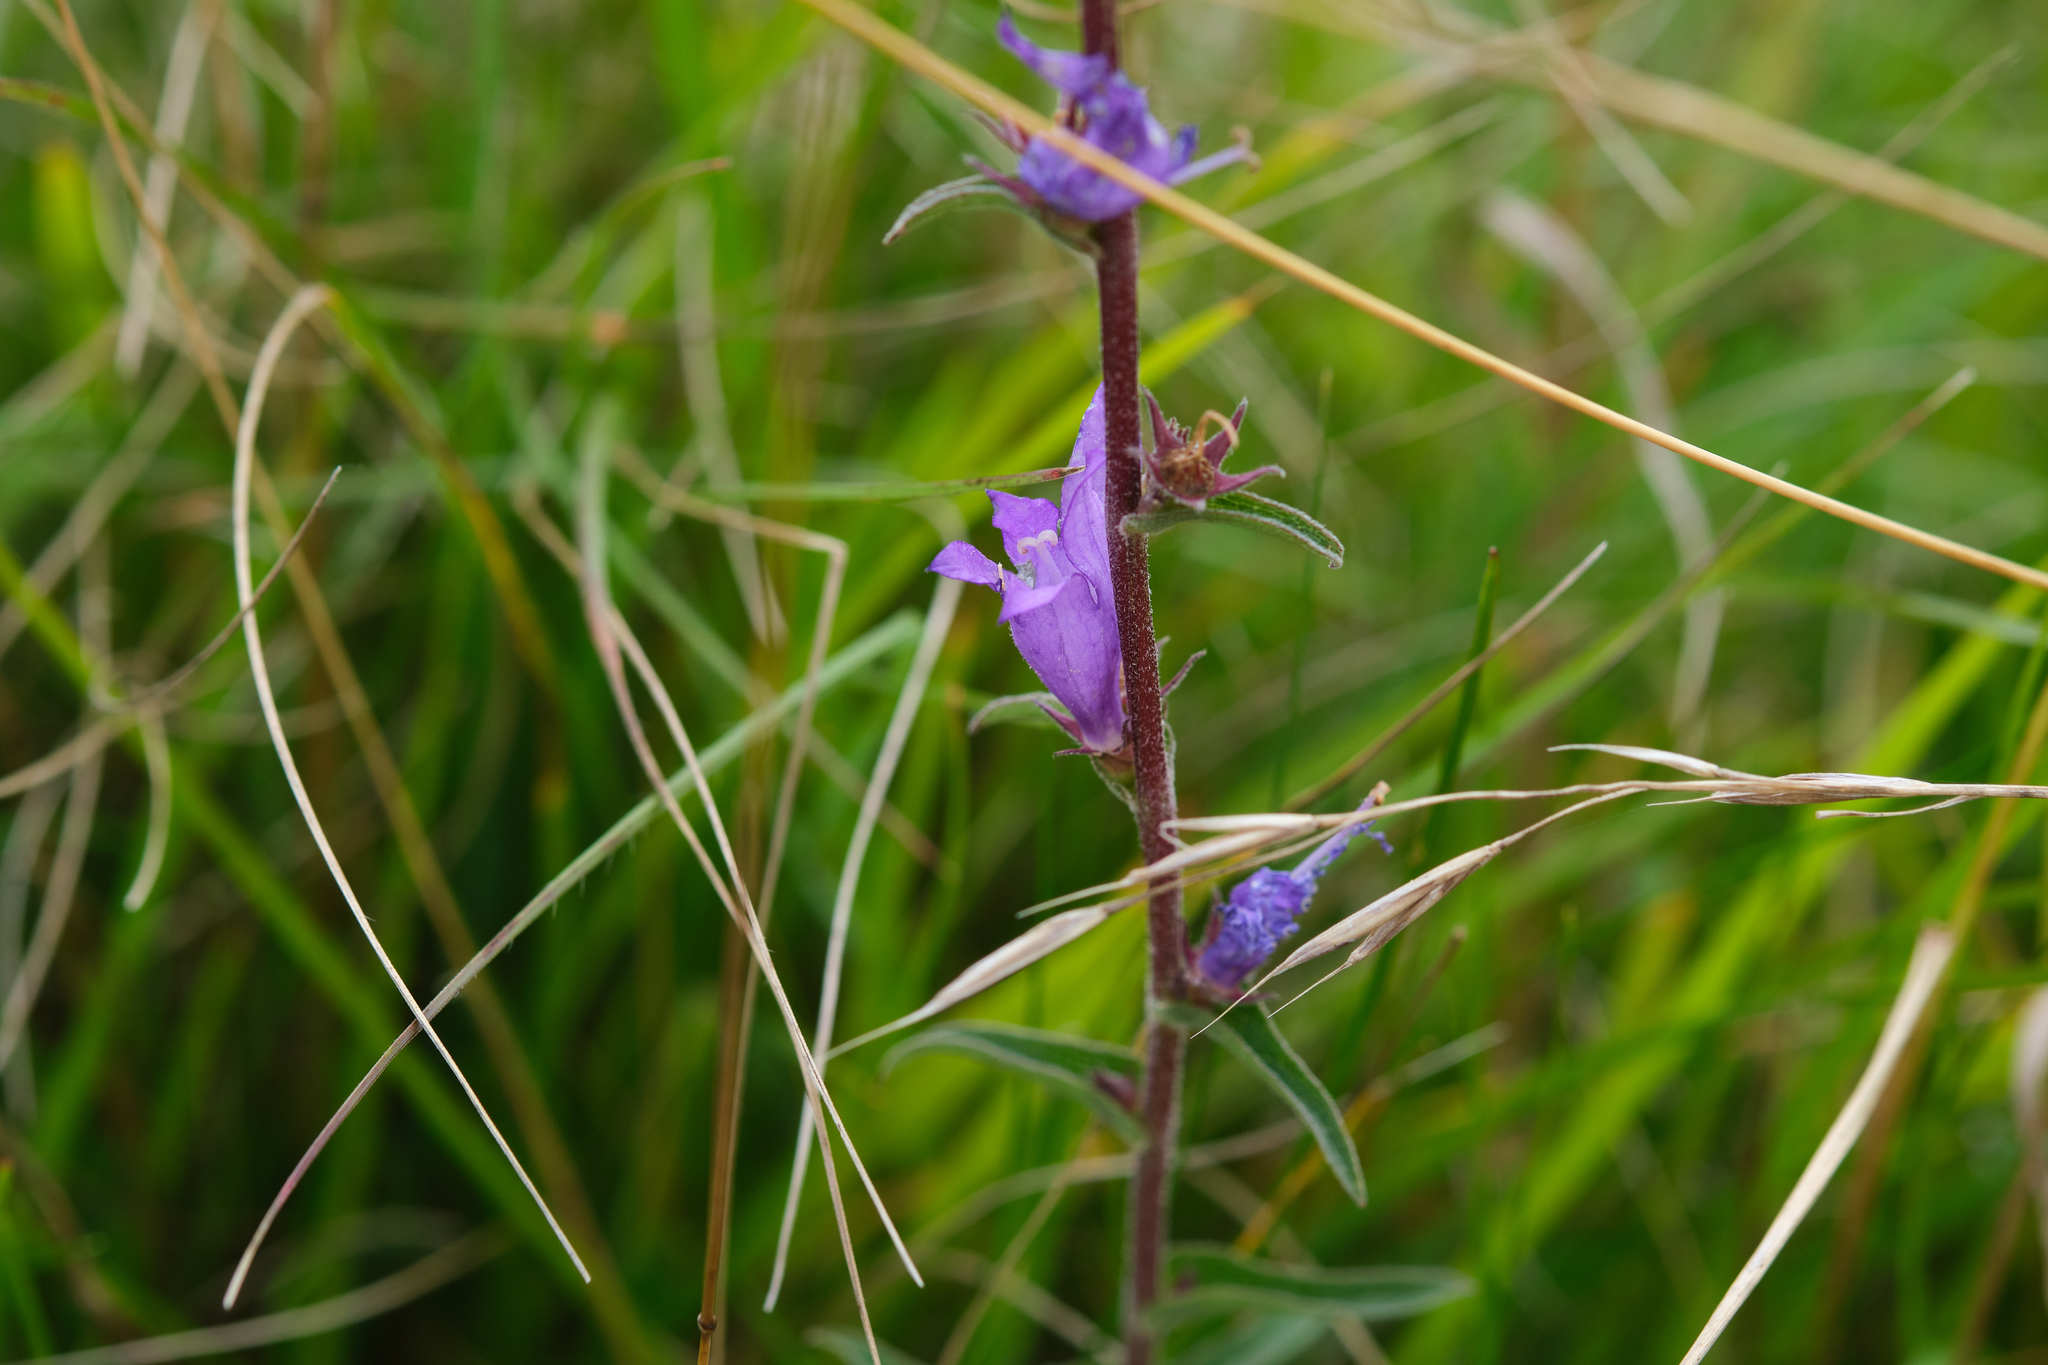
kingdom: Plantae
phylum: Tracheophyta
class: Magnoliopsida
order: Asterales
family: Campanulaceae
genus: Campanula
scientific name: Campanula glomerata
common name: Clustered bellflower
